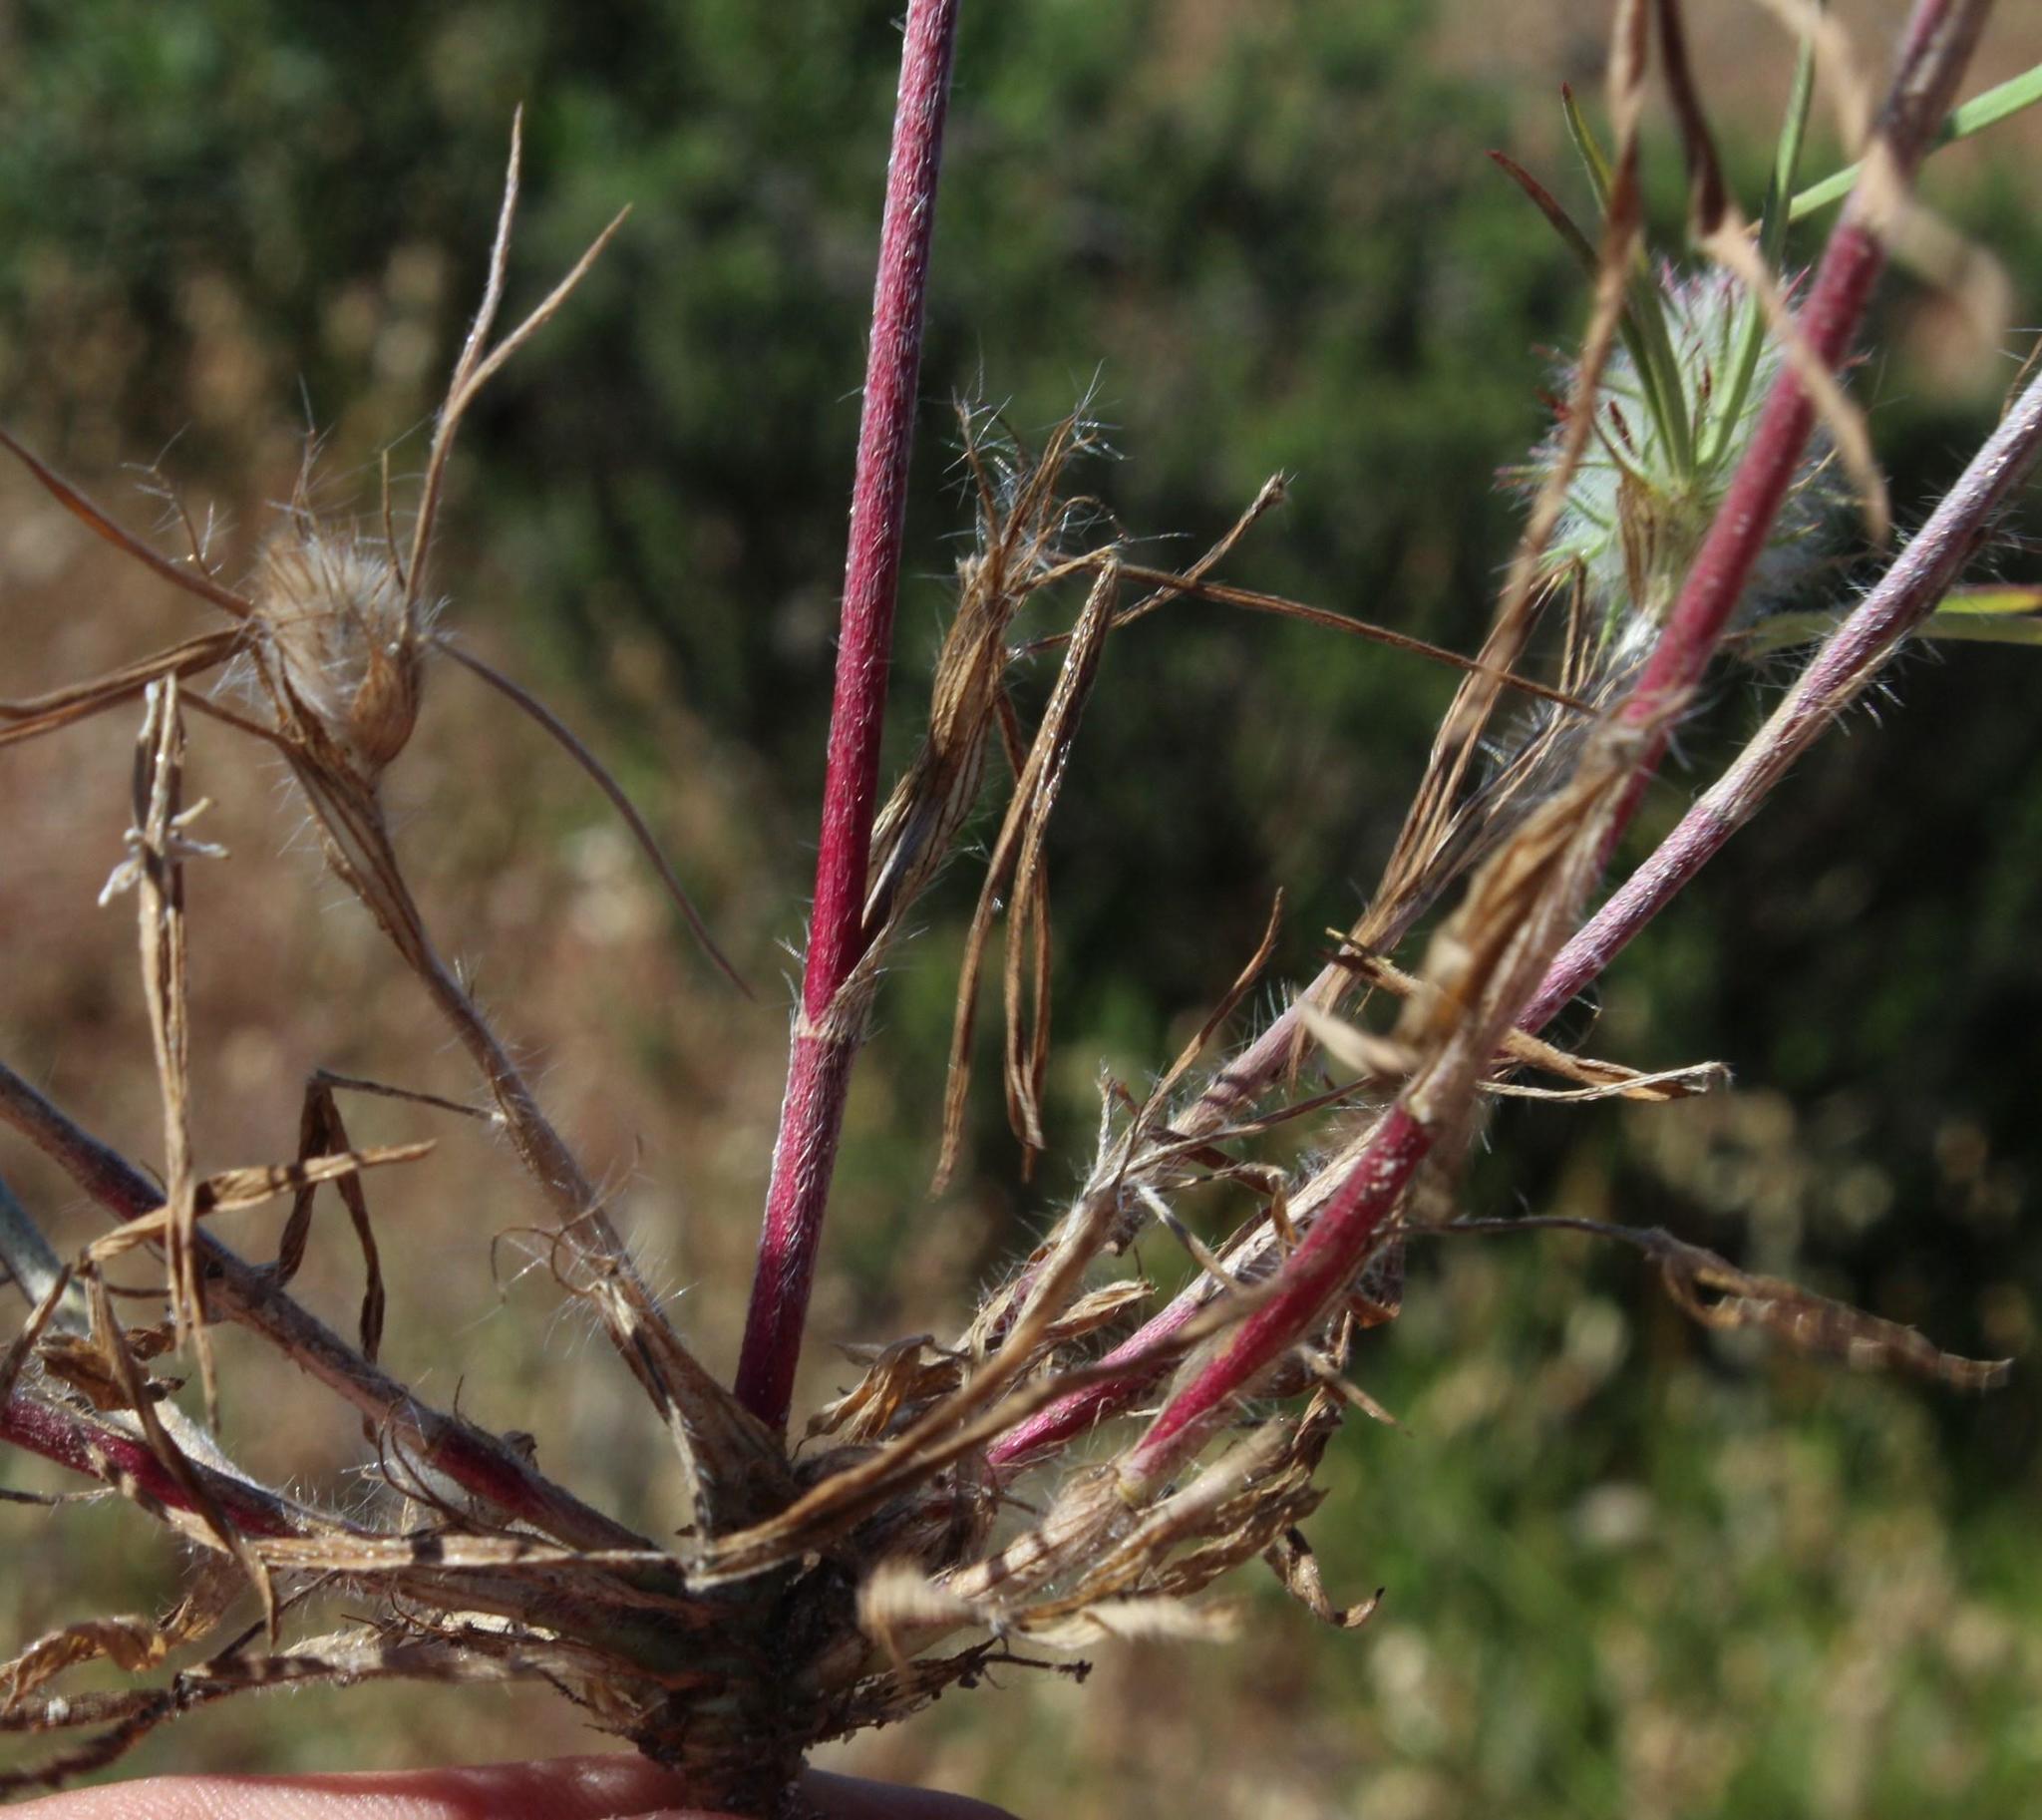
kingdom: Plantae
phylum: Tracheophyta
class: Magnoliopsida
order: Fabales
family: Fabaceae
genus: Trifolium
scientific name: Trifolium angustifolium
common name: Narrow clover
